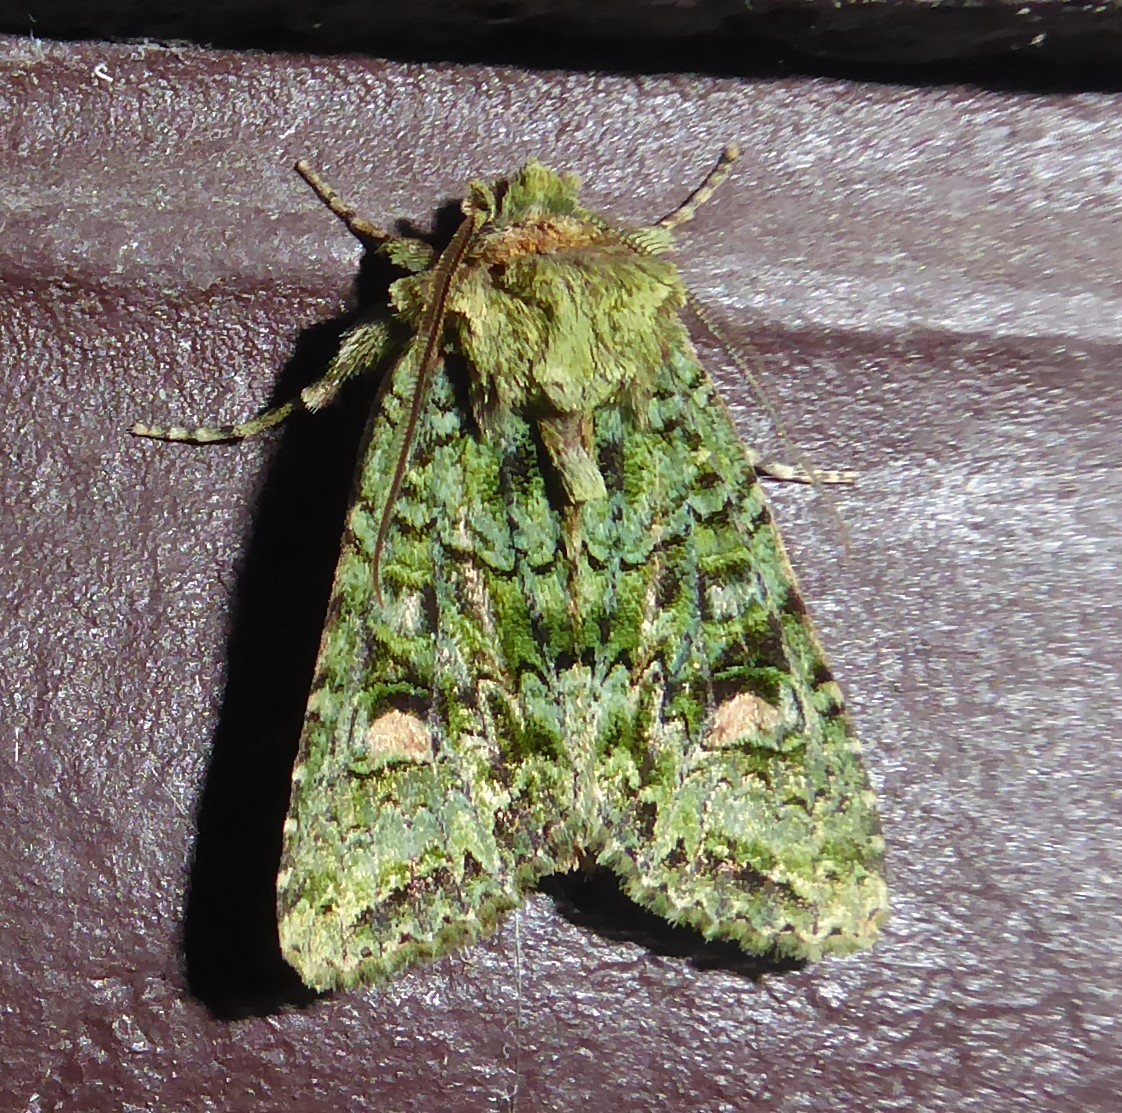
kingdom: Animalia
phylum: Arthropoda
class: Insecta
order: Lepidoptera
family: Noctuidae
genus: Ichneutica
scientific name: Ichneutica
